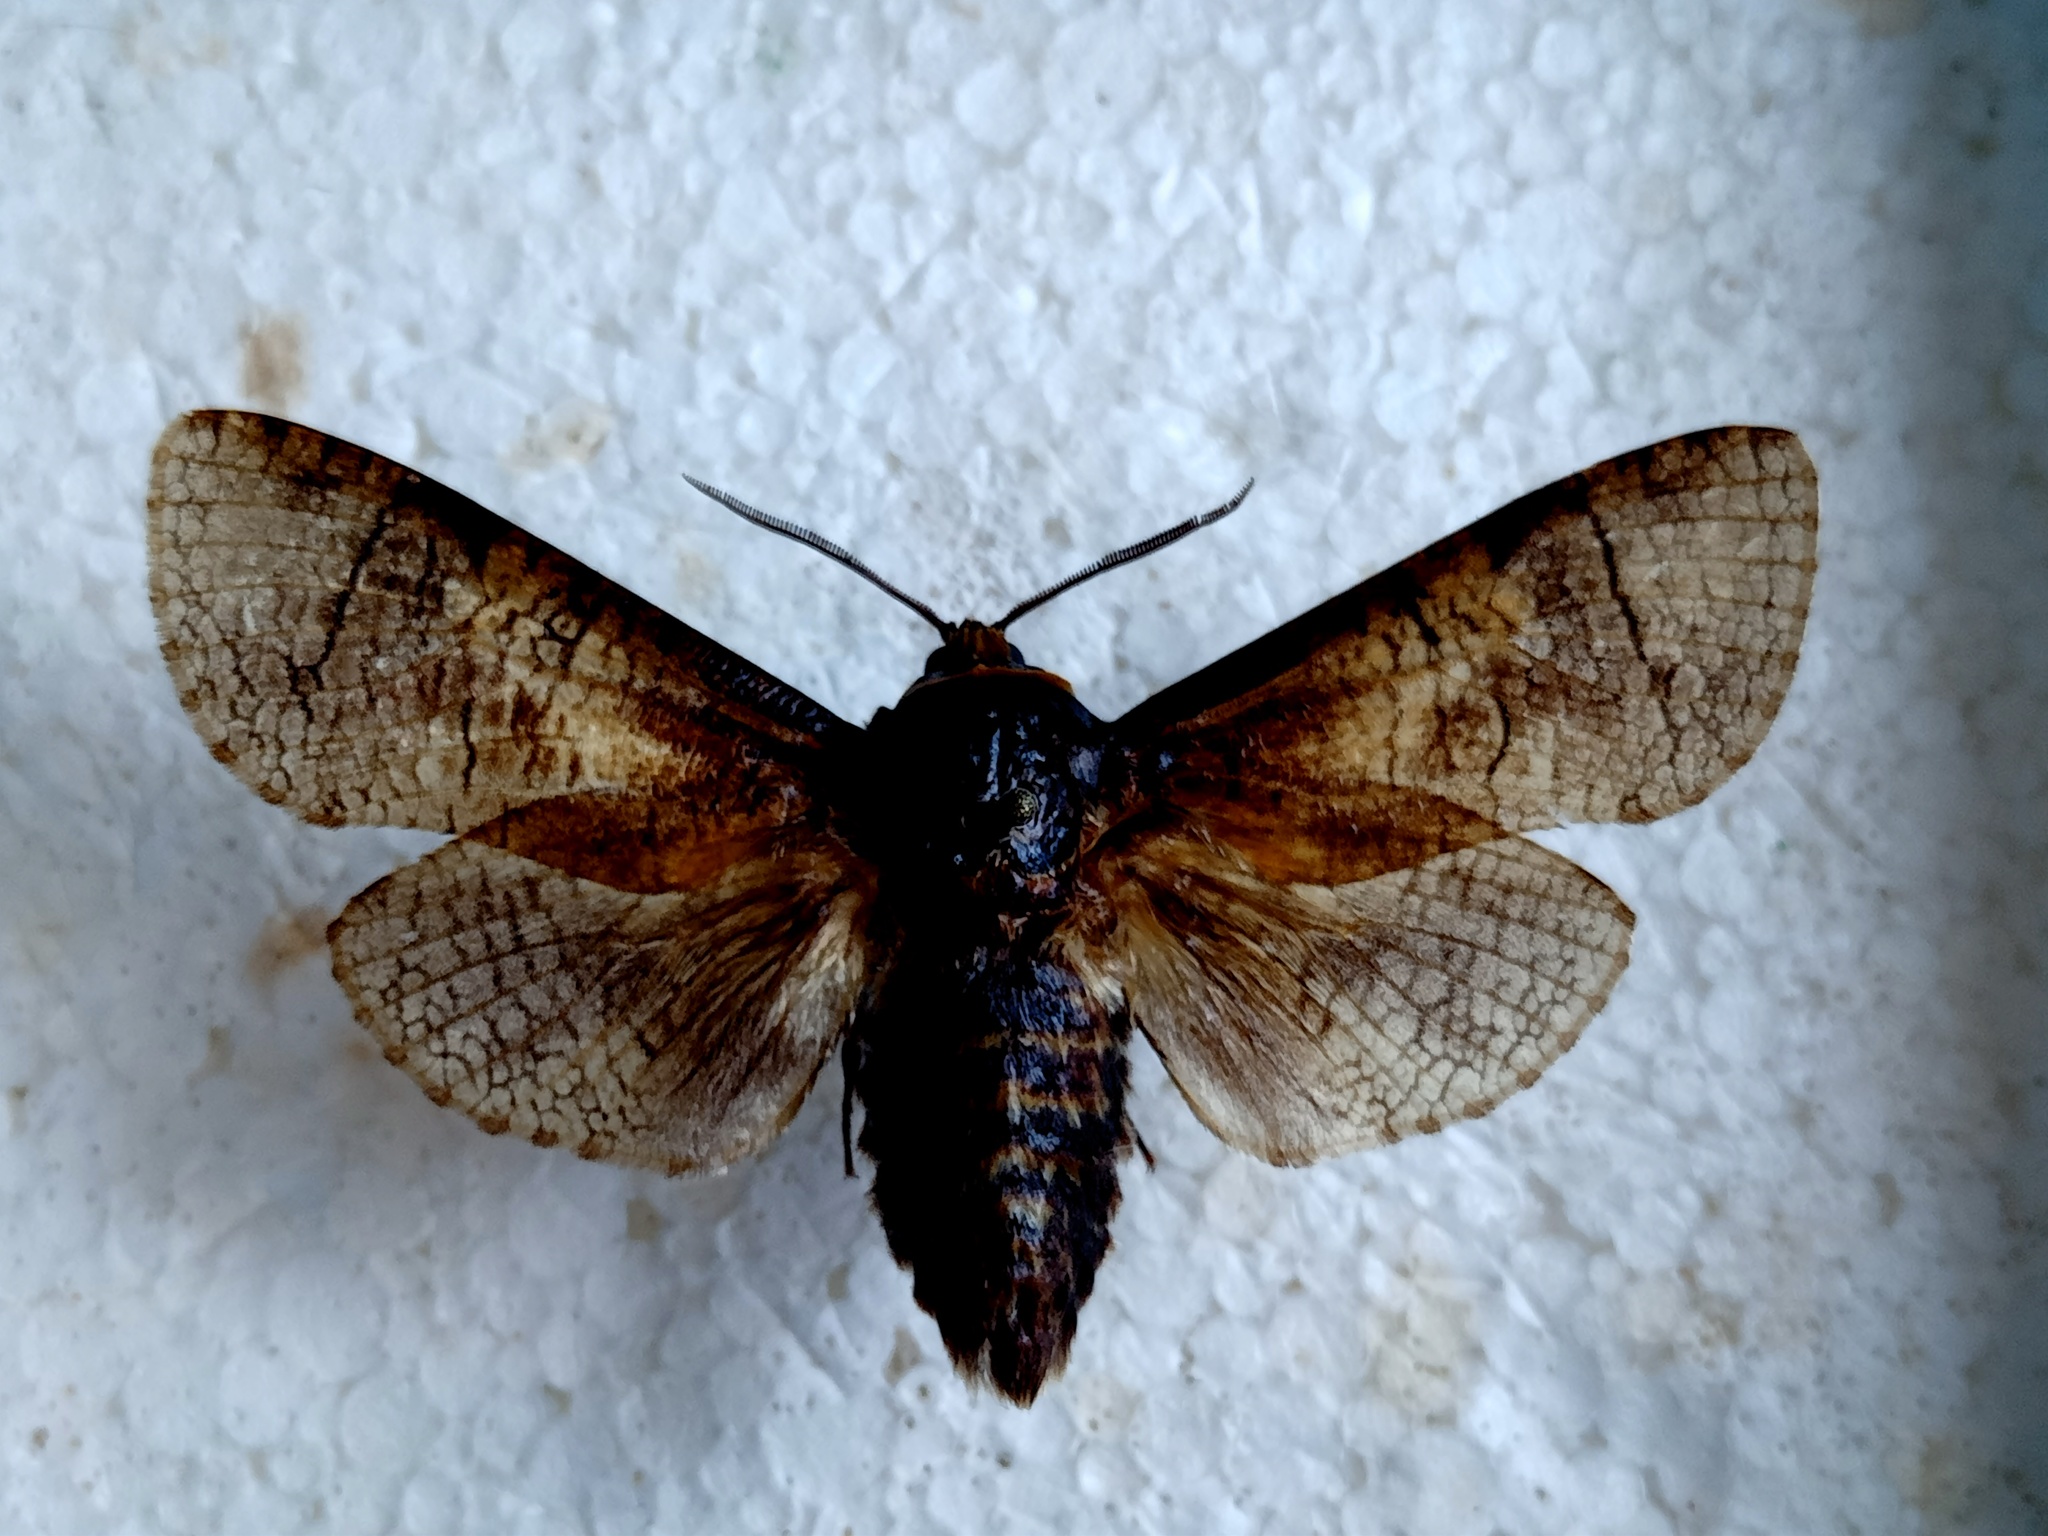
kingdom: Animalia
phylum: Arthropoda
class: Insecta
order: Lepidoptera
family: Cossidae
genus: Cossus
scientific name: Cossus cossus
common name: Goat moth
